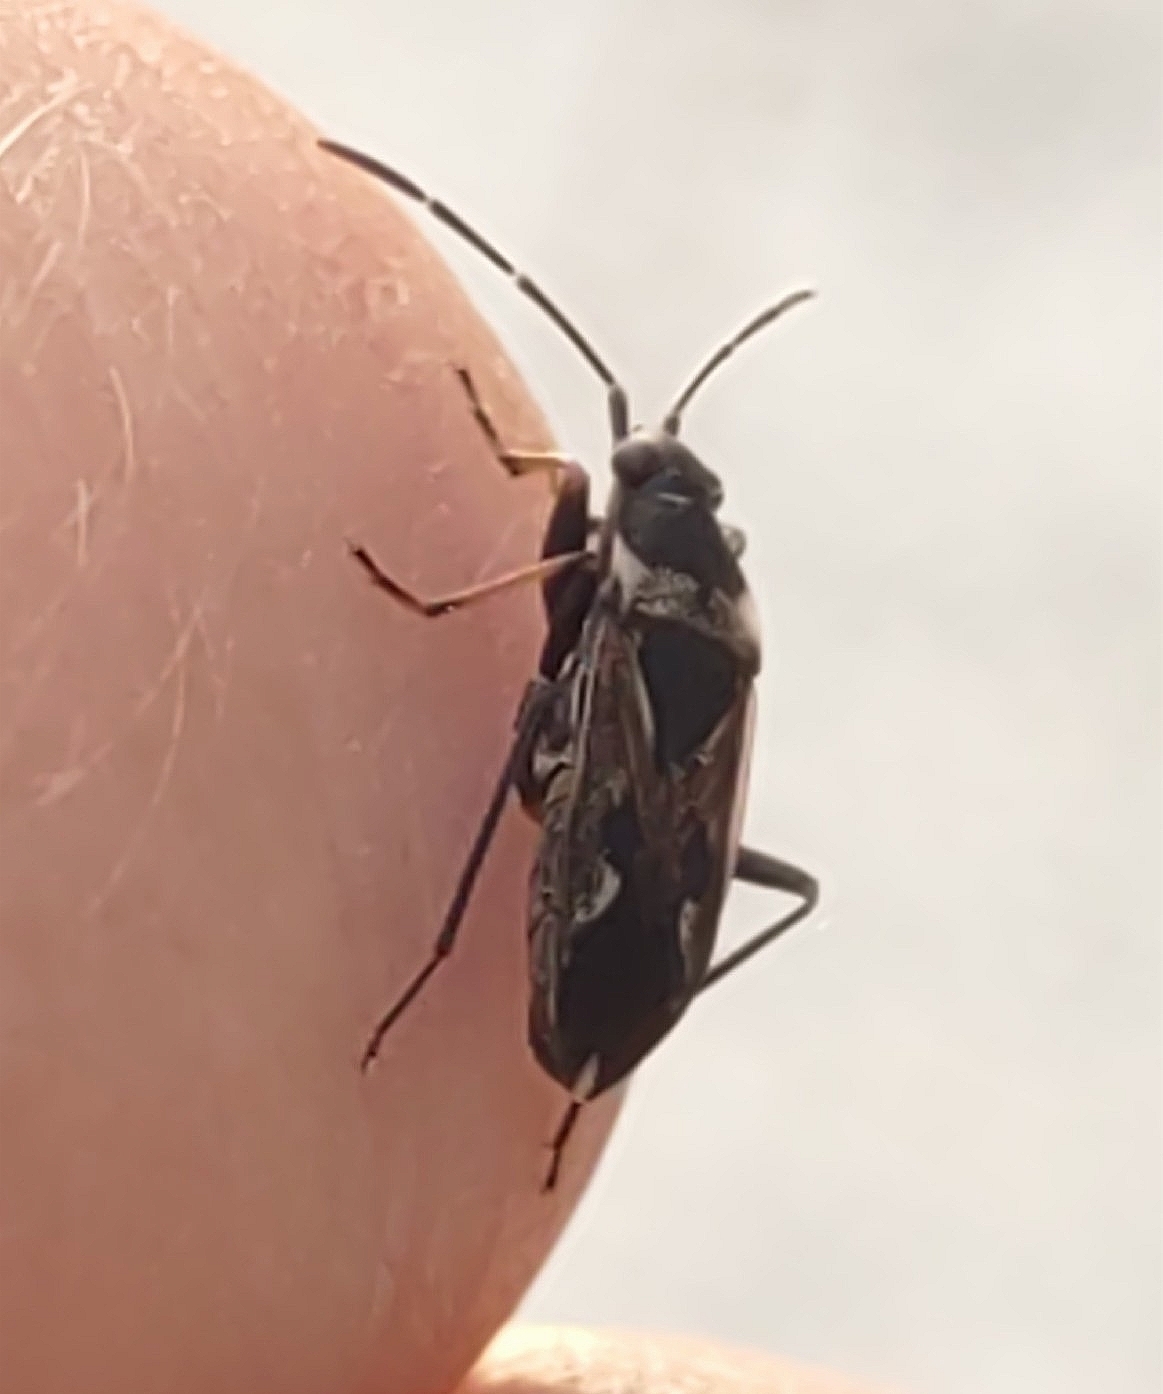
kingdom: Animalia
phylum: Arthropoda
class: Insecta
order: Hemiptera
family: Rhyparochromidae
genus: Rhyparochromus
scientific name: Rhyparochromus vulgaris
